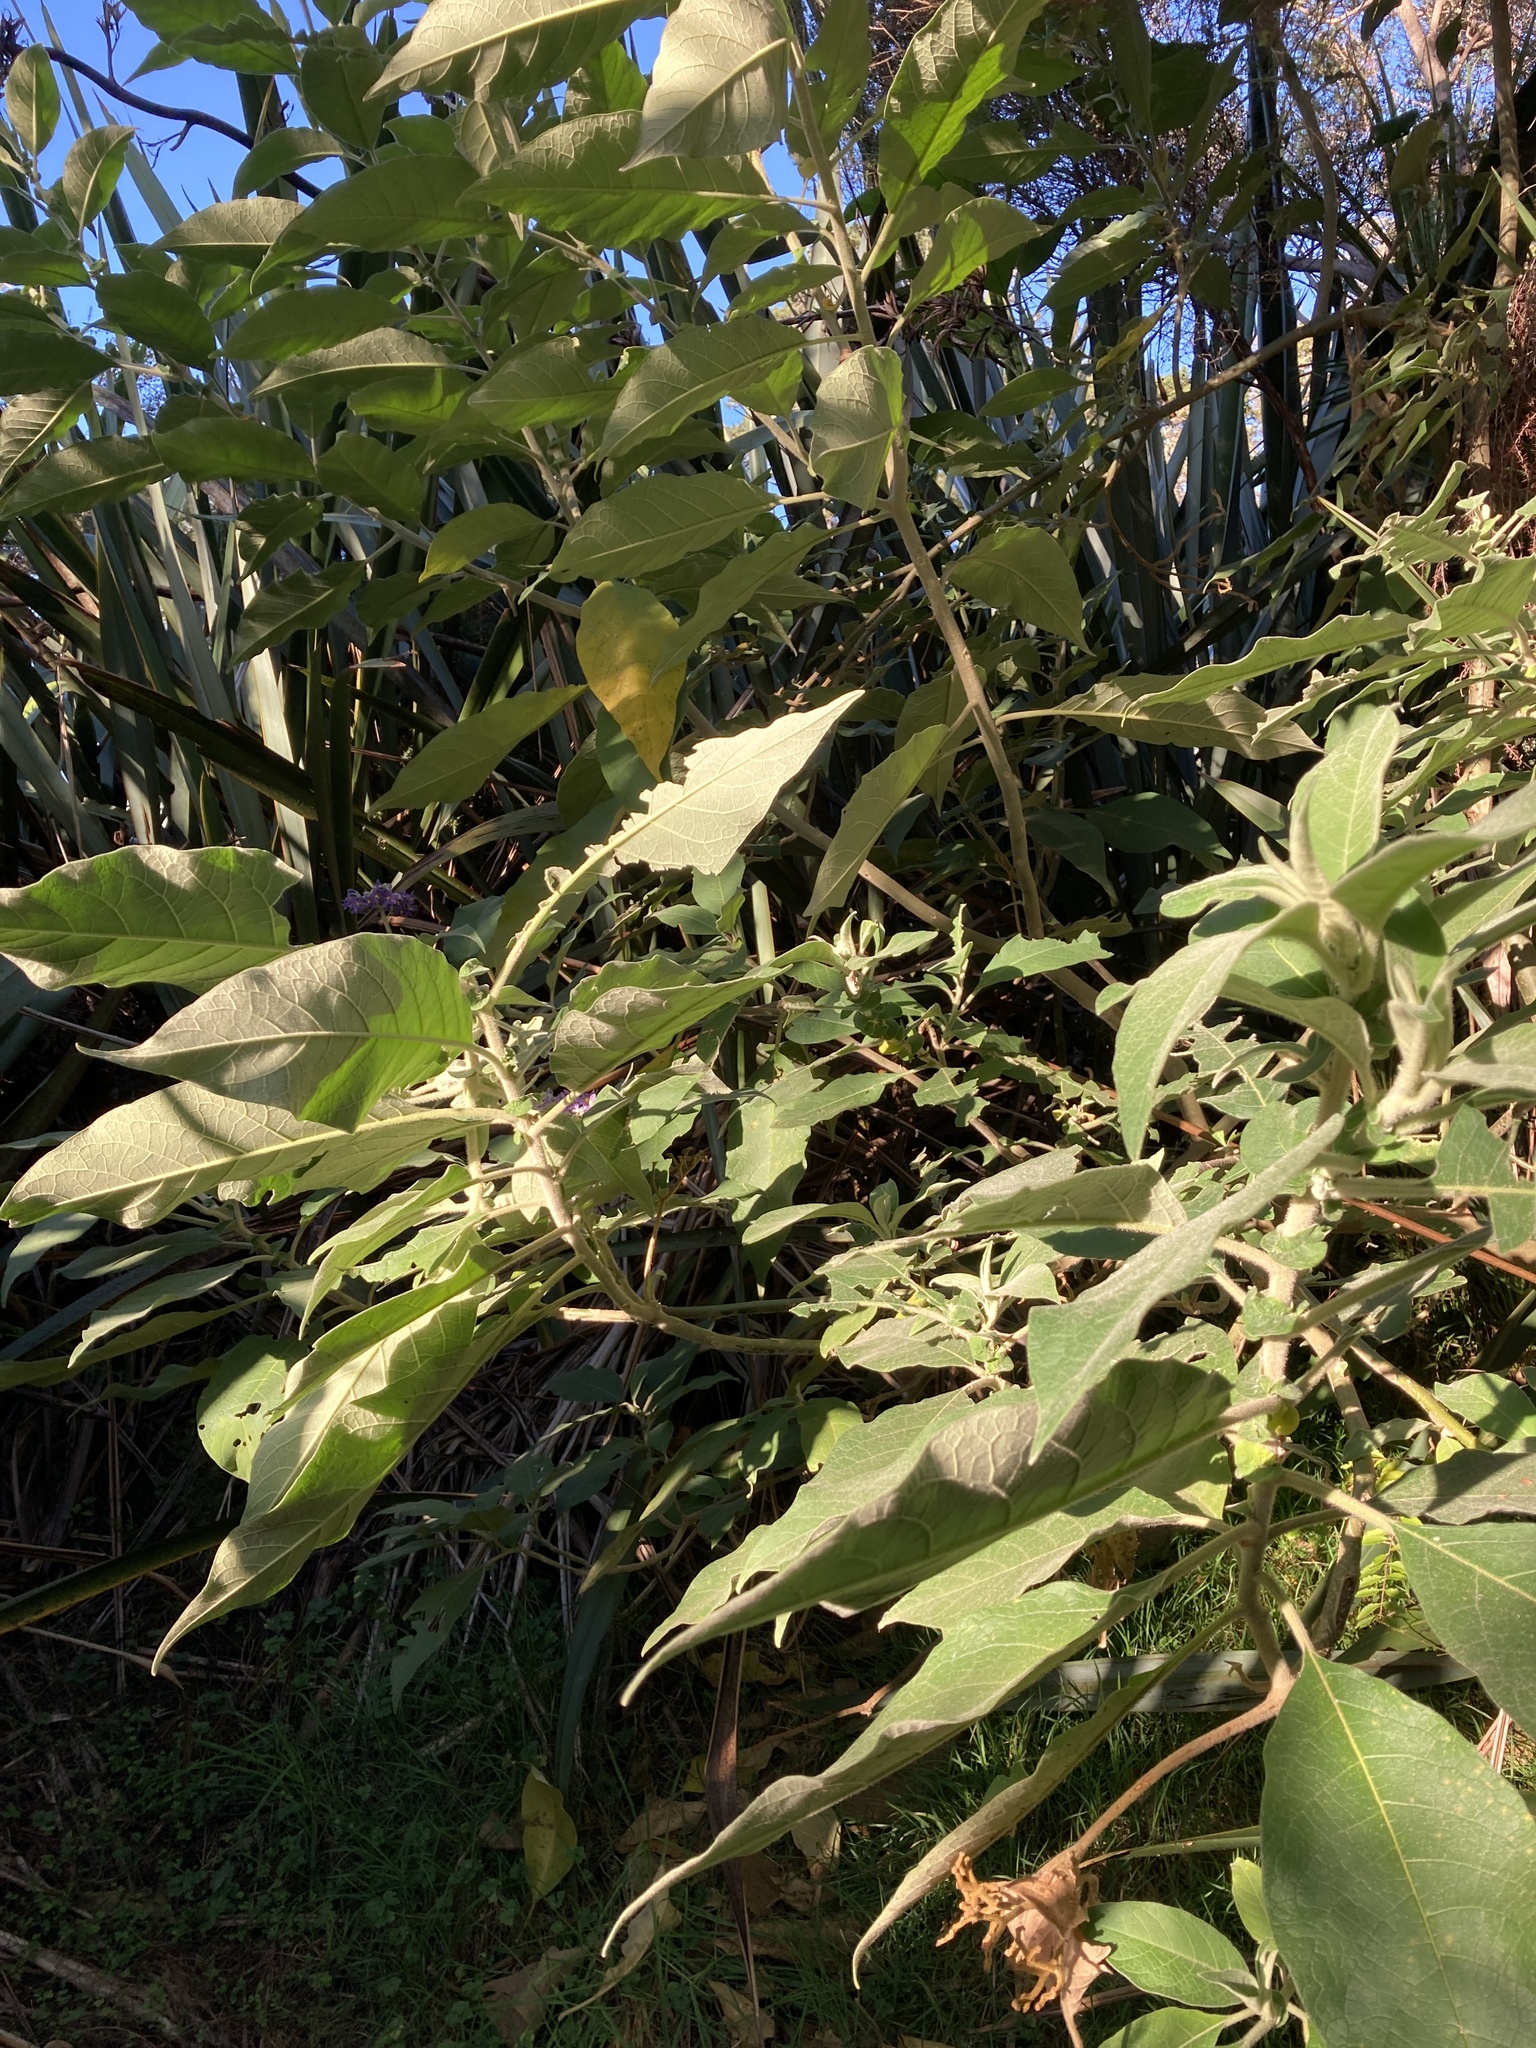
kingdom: Plantae
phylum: Tracheophyta
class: Magnoliopsida
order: Solanales
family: Solanaceae
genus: Solanum
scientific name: Solanum mauritianum
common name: Earleaf nightshade
